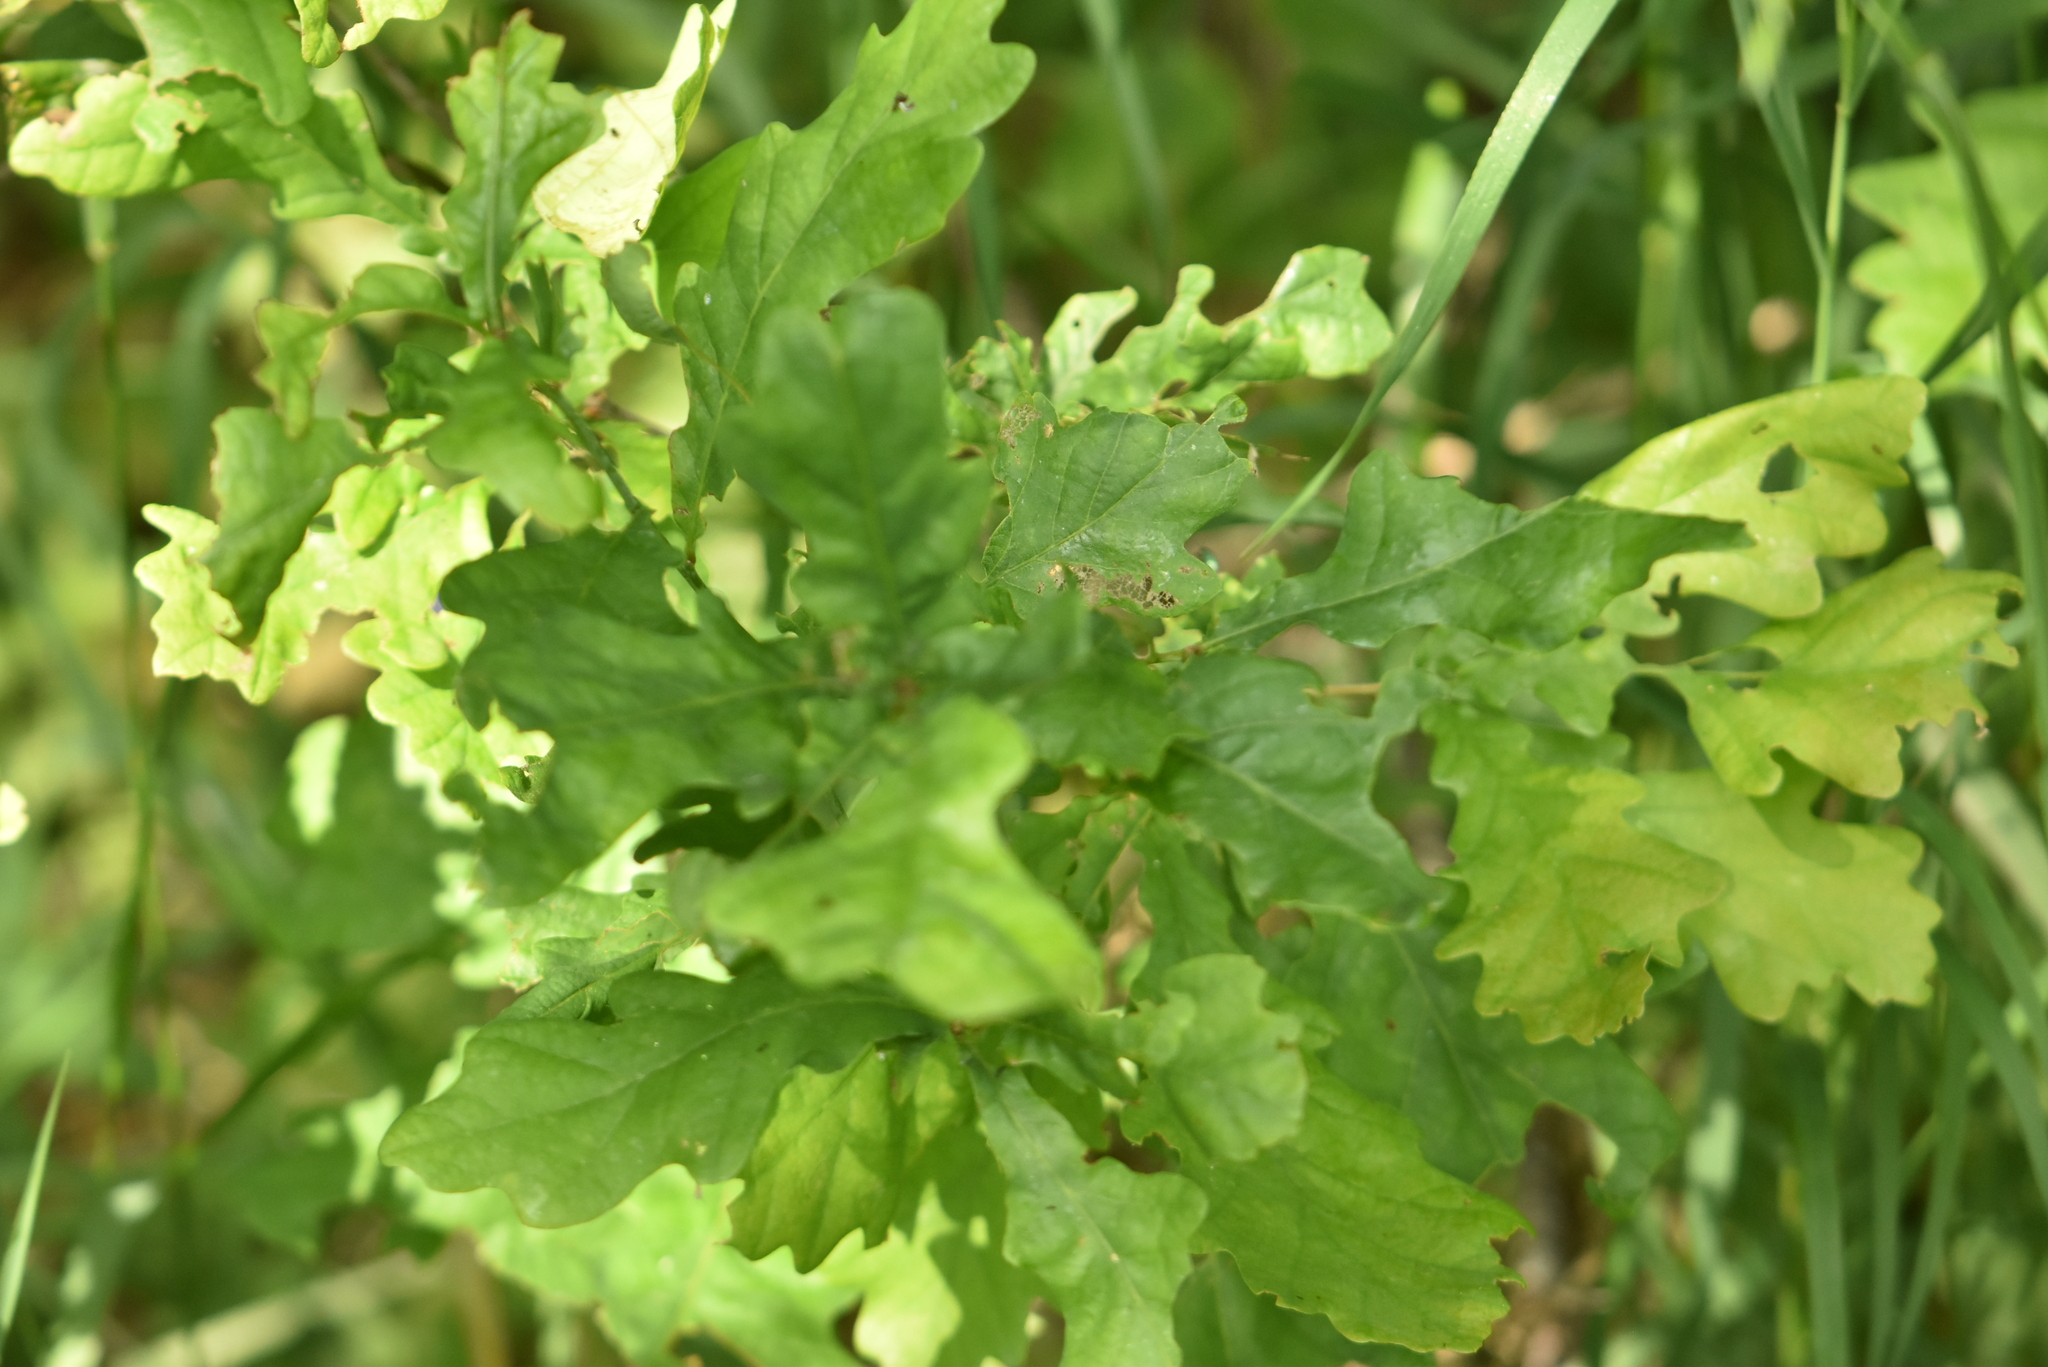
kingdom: Plantae
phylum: Tracheophyta
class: Magnoliopsida
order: Fagales
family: Fagaceae
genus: Quercus
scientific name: Quercus robur
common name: Pedunculate oak
